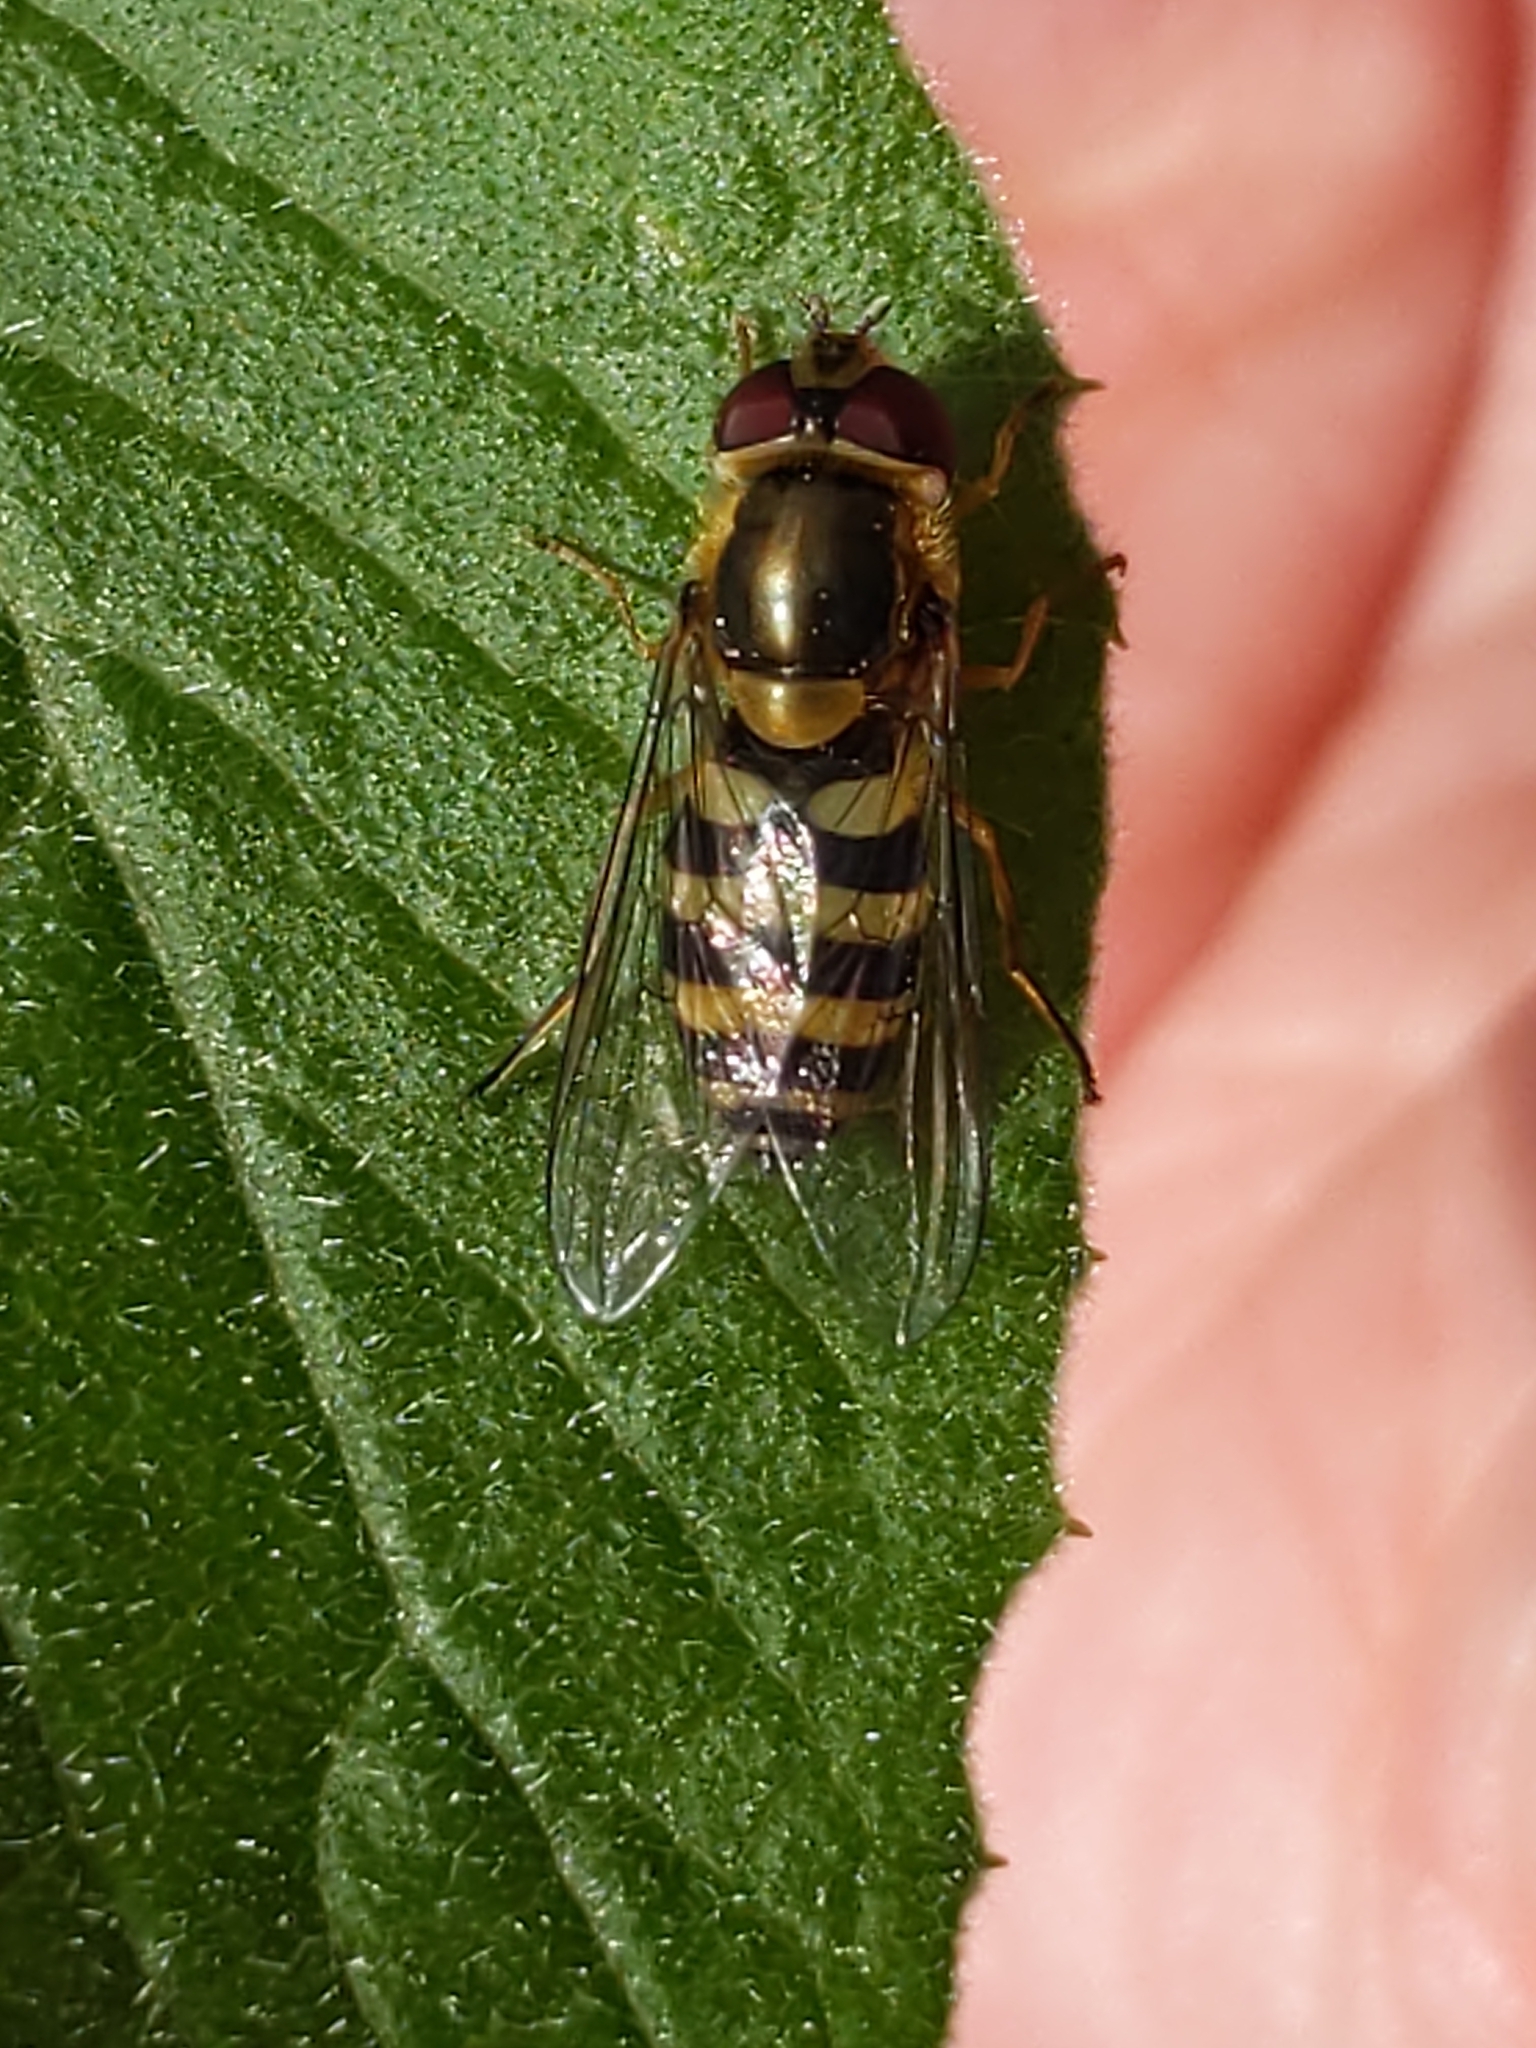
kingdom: Animalia
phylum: Arthropoda
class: Insecta
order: Diptera
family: Syrphidae
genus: Syrphus
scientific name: Syrphus rectus
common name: Yellow-legged flower fly
